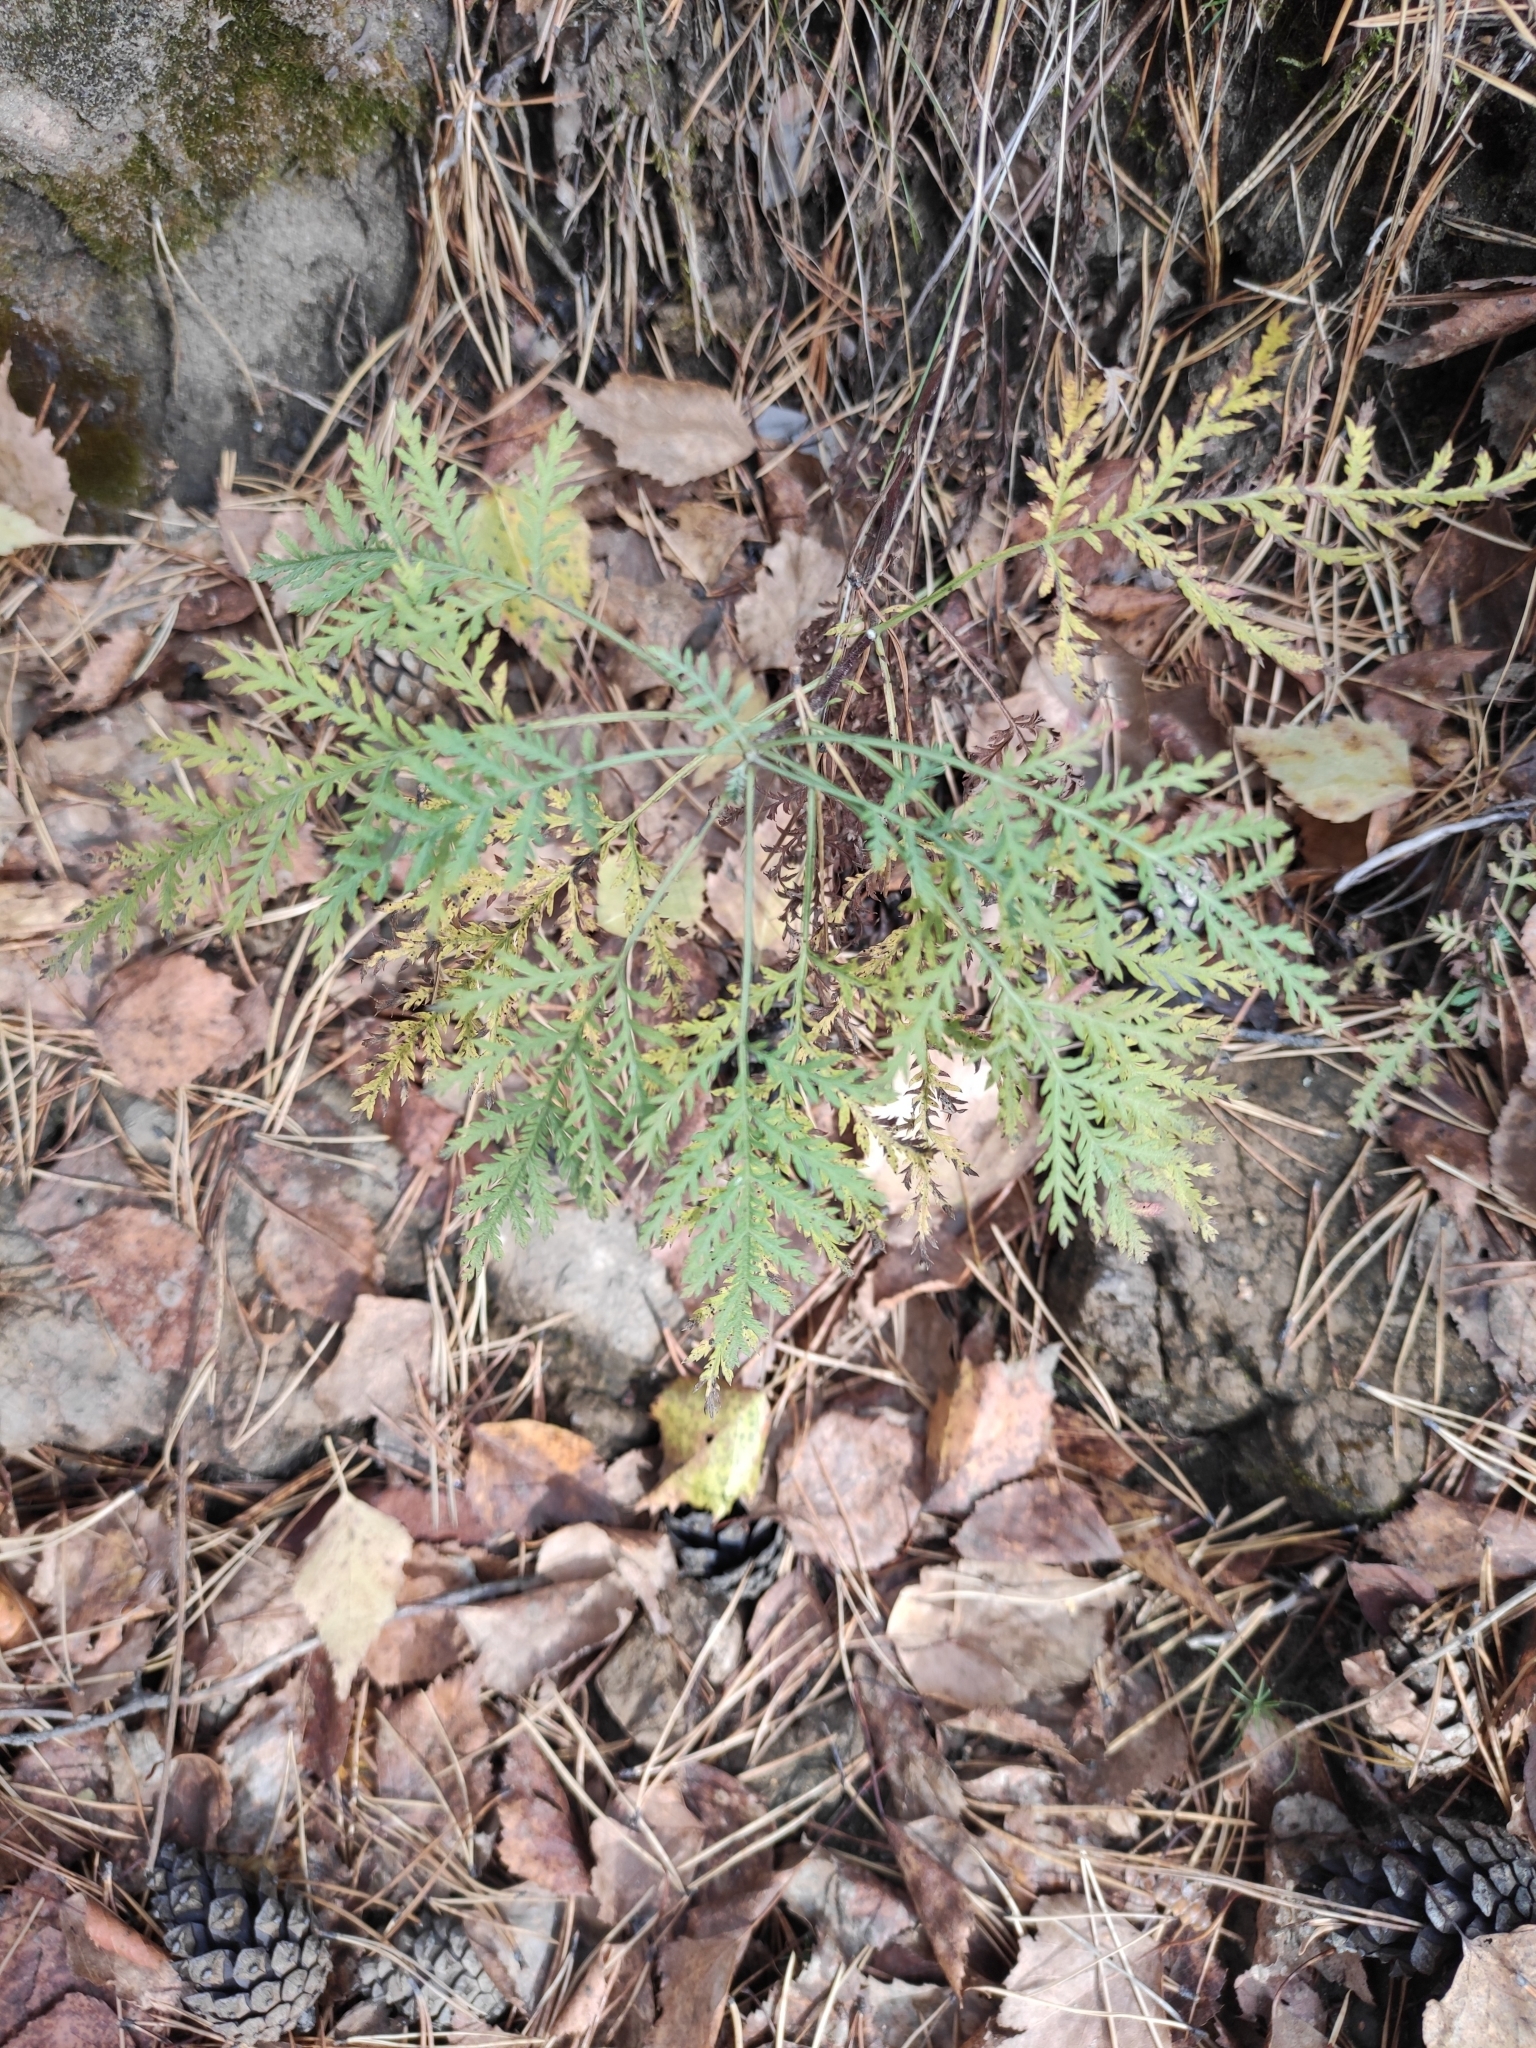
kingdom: Plantae
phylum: Tracheophyta
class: Magnoliopsida
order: Asterales
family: Asteraceae
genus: Artemisia
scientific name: Artemisia gmelinii
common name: Gmelin's wormwood
